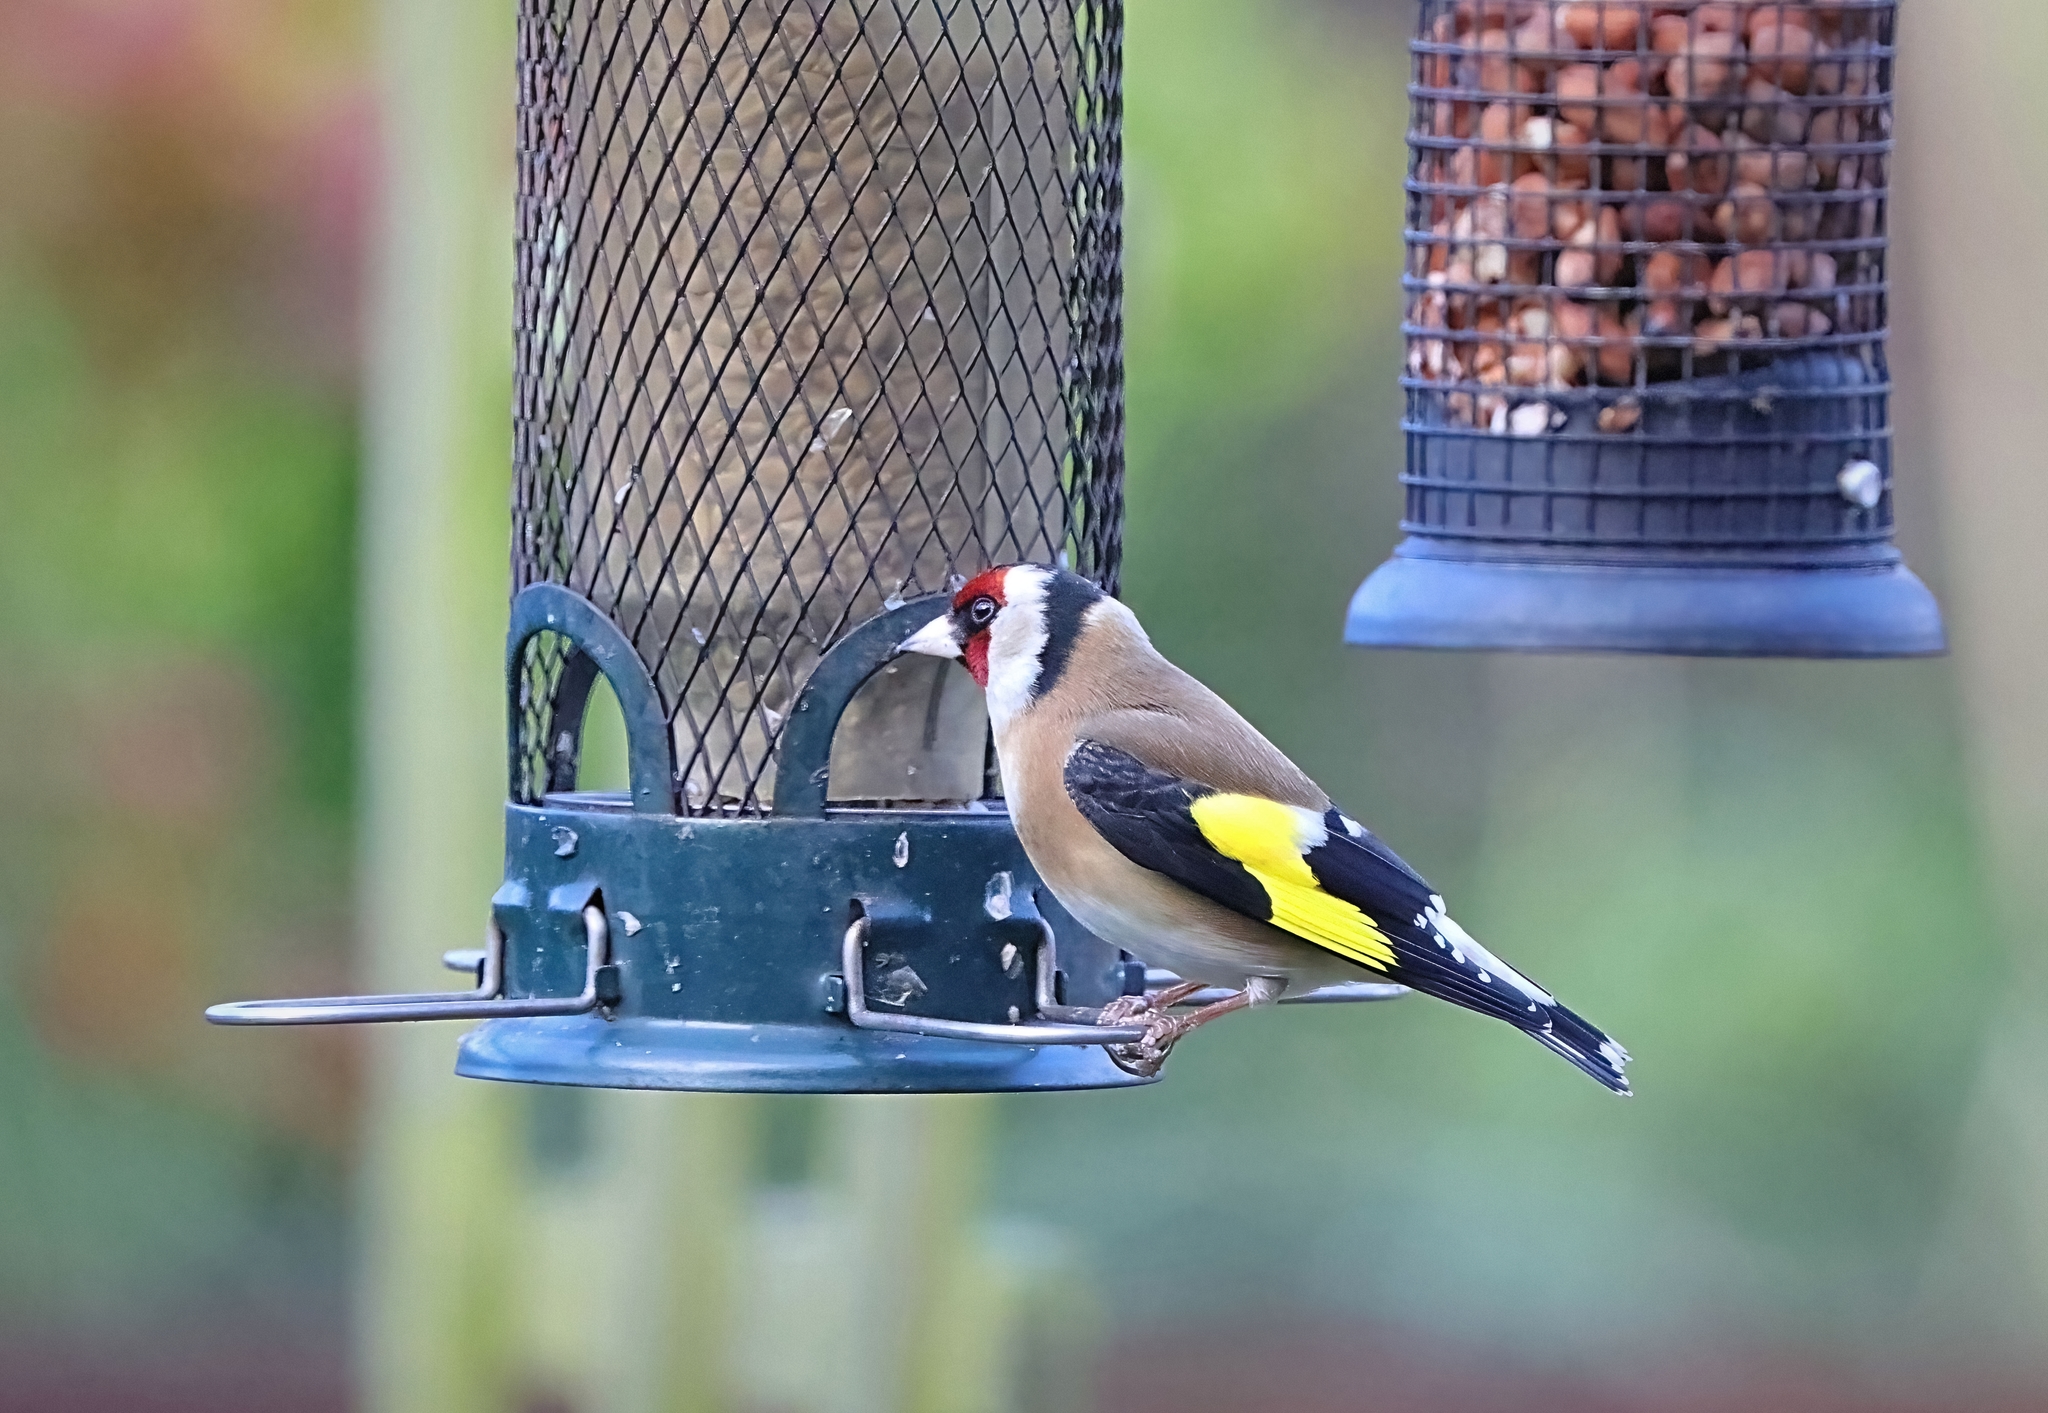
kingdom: Animalia
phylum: Chordata
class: Aves
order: Passeriformes
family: Fringillidae
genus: Carduelis
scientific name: Carduelis carduelis
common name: European goldfinch
